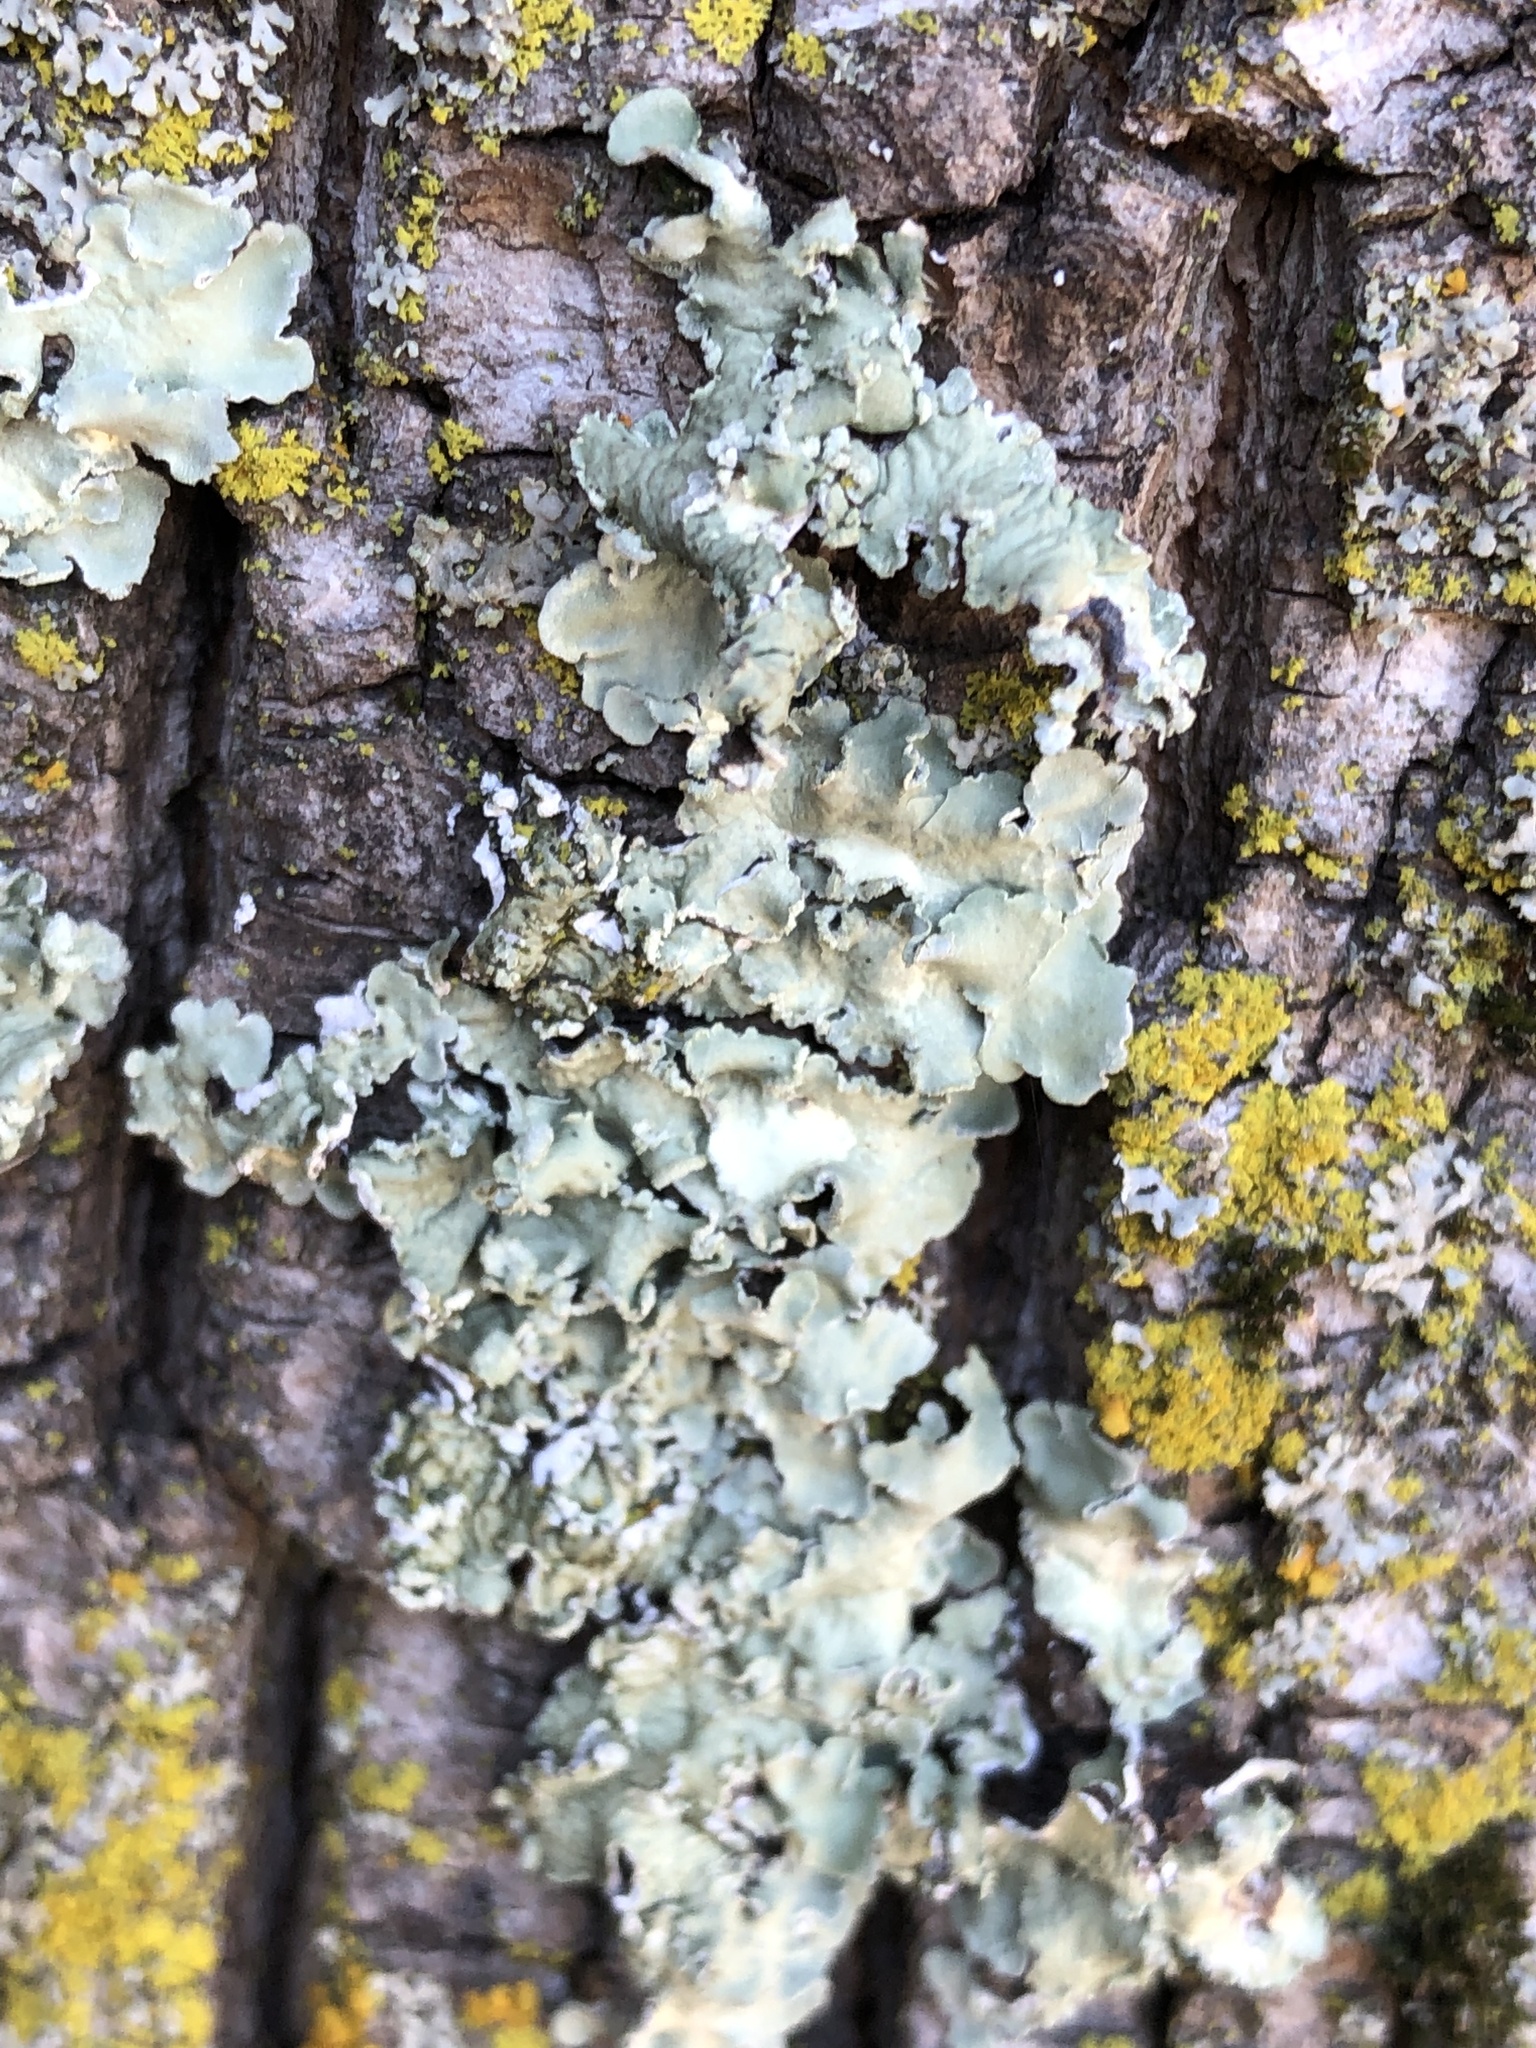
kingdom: Fungi
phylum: Ascomycota
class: Lecanoromycetes
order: Lecanorales
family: Parmeliaceae
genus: Flavopunctelia
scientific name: Flavopunctelia flaventior
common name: Speckled greenshield
